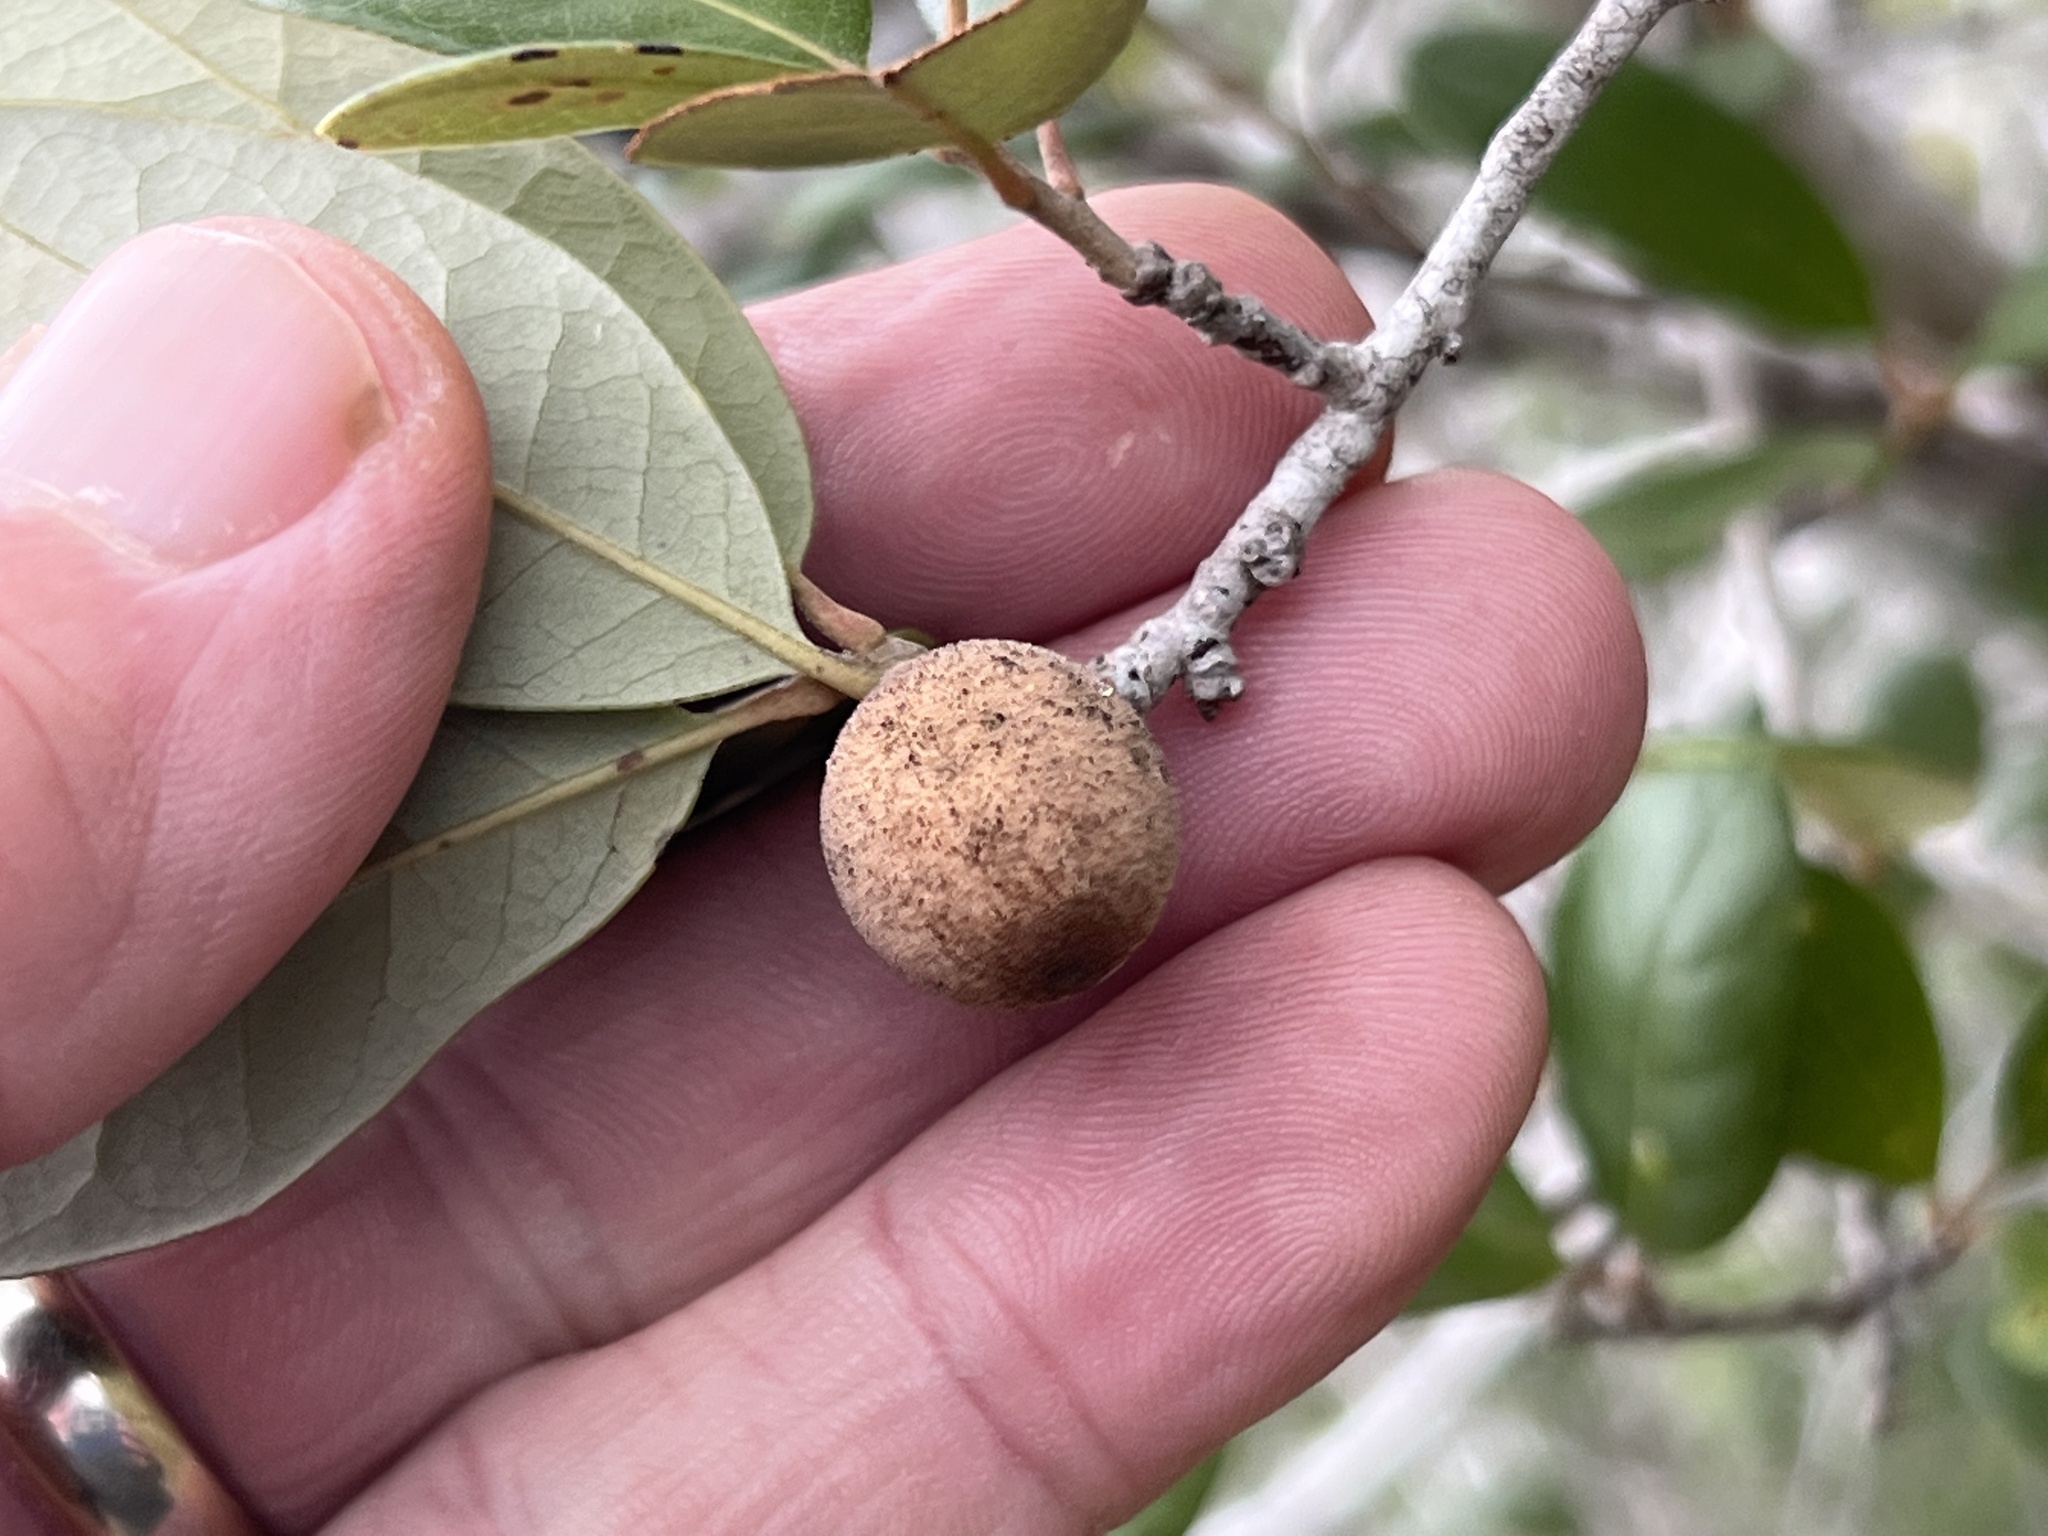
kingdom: Animalia
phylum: Arthropoda
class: Insecta
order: Hymenoptera
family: Cynipidae
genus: Disholcaspis
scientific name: Disholcaspis
